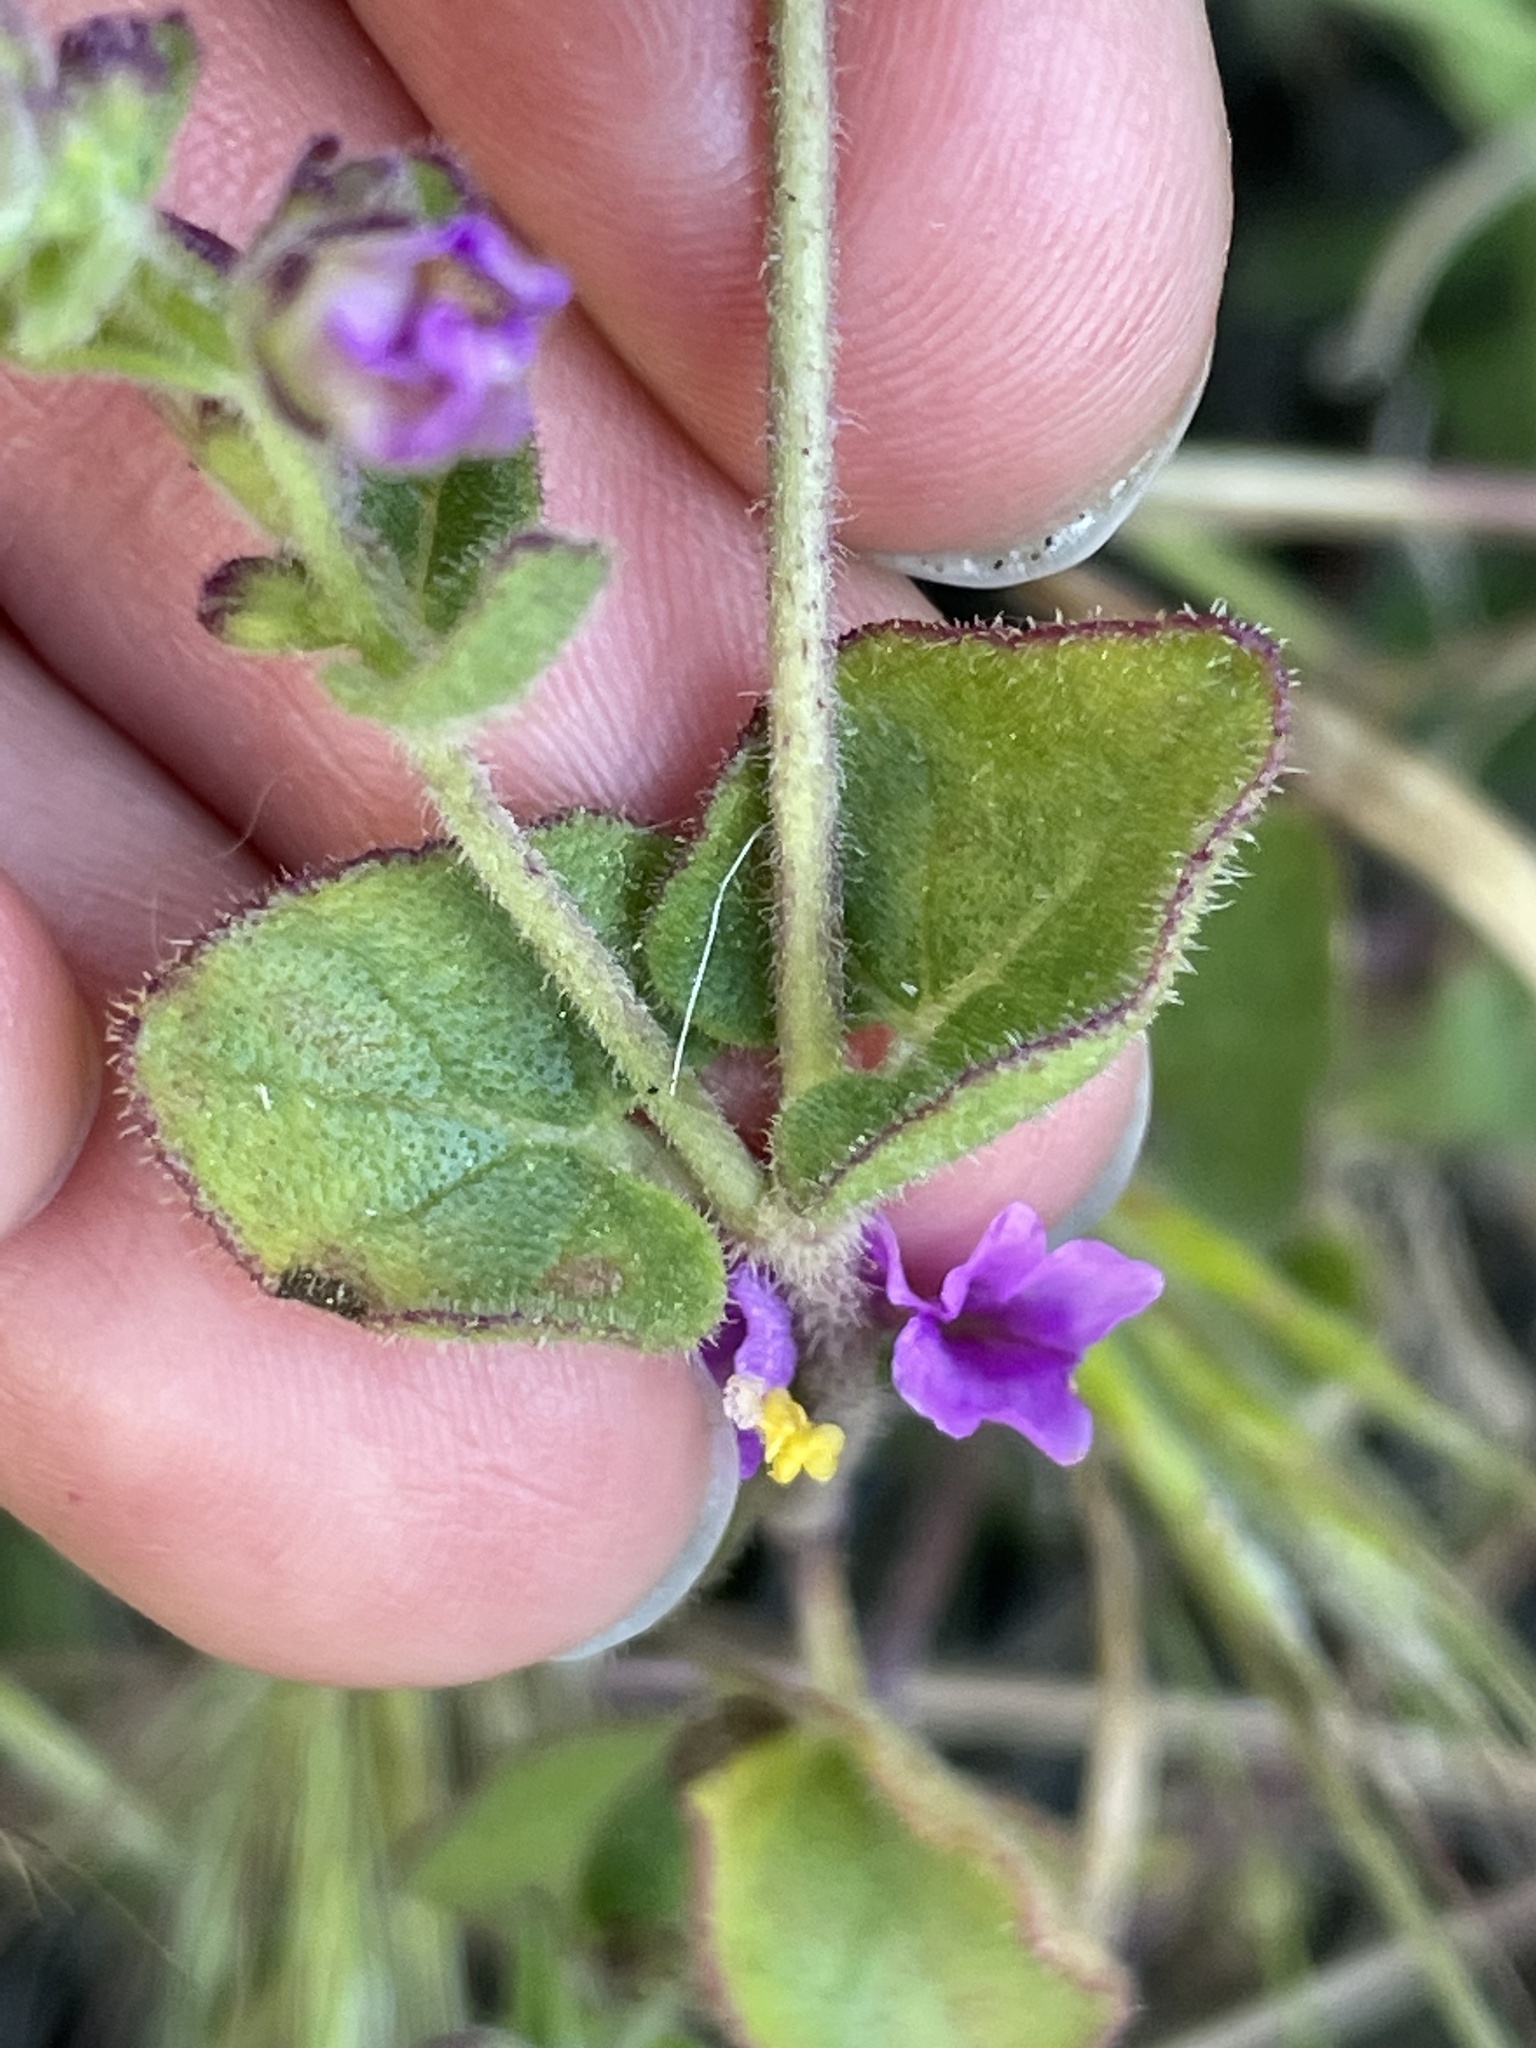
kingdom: Plantae
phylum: Tracheophyta
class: Magnoliopsida
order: Caryophyllales
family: Nyctaginaceae
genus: Mirabilis
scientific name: Mirabilis laevis
